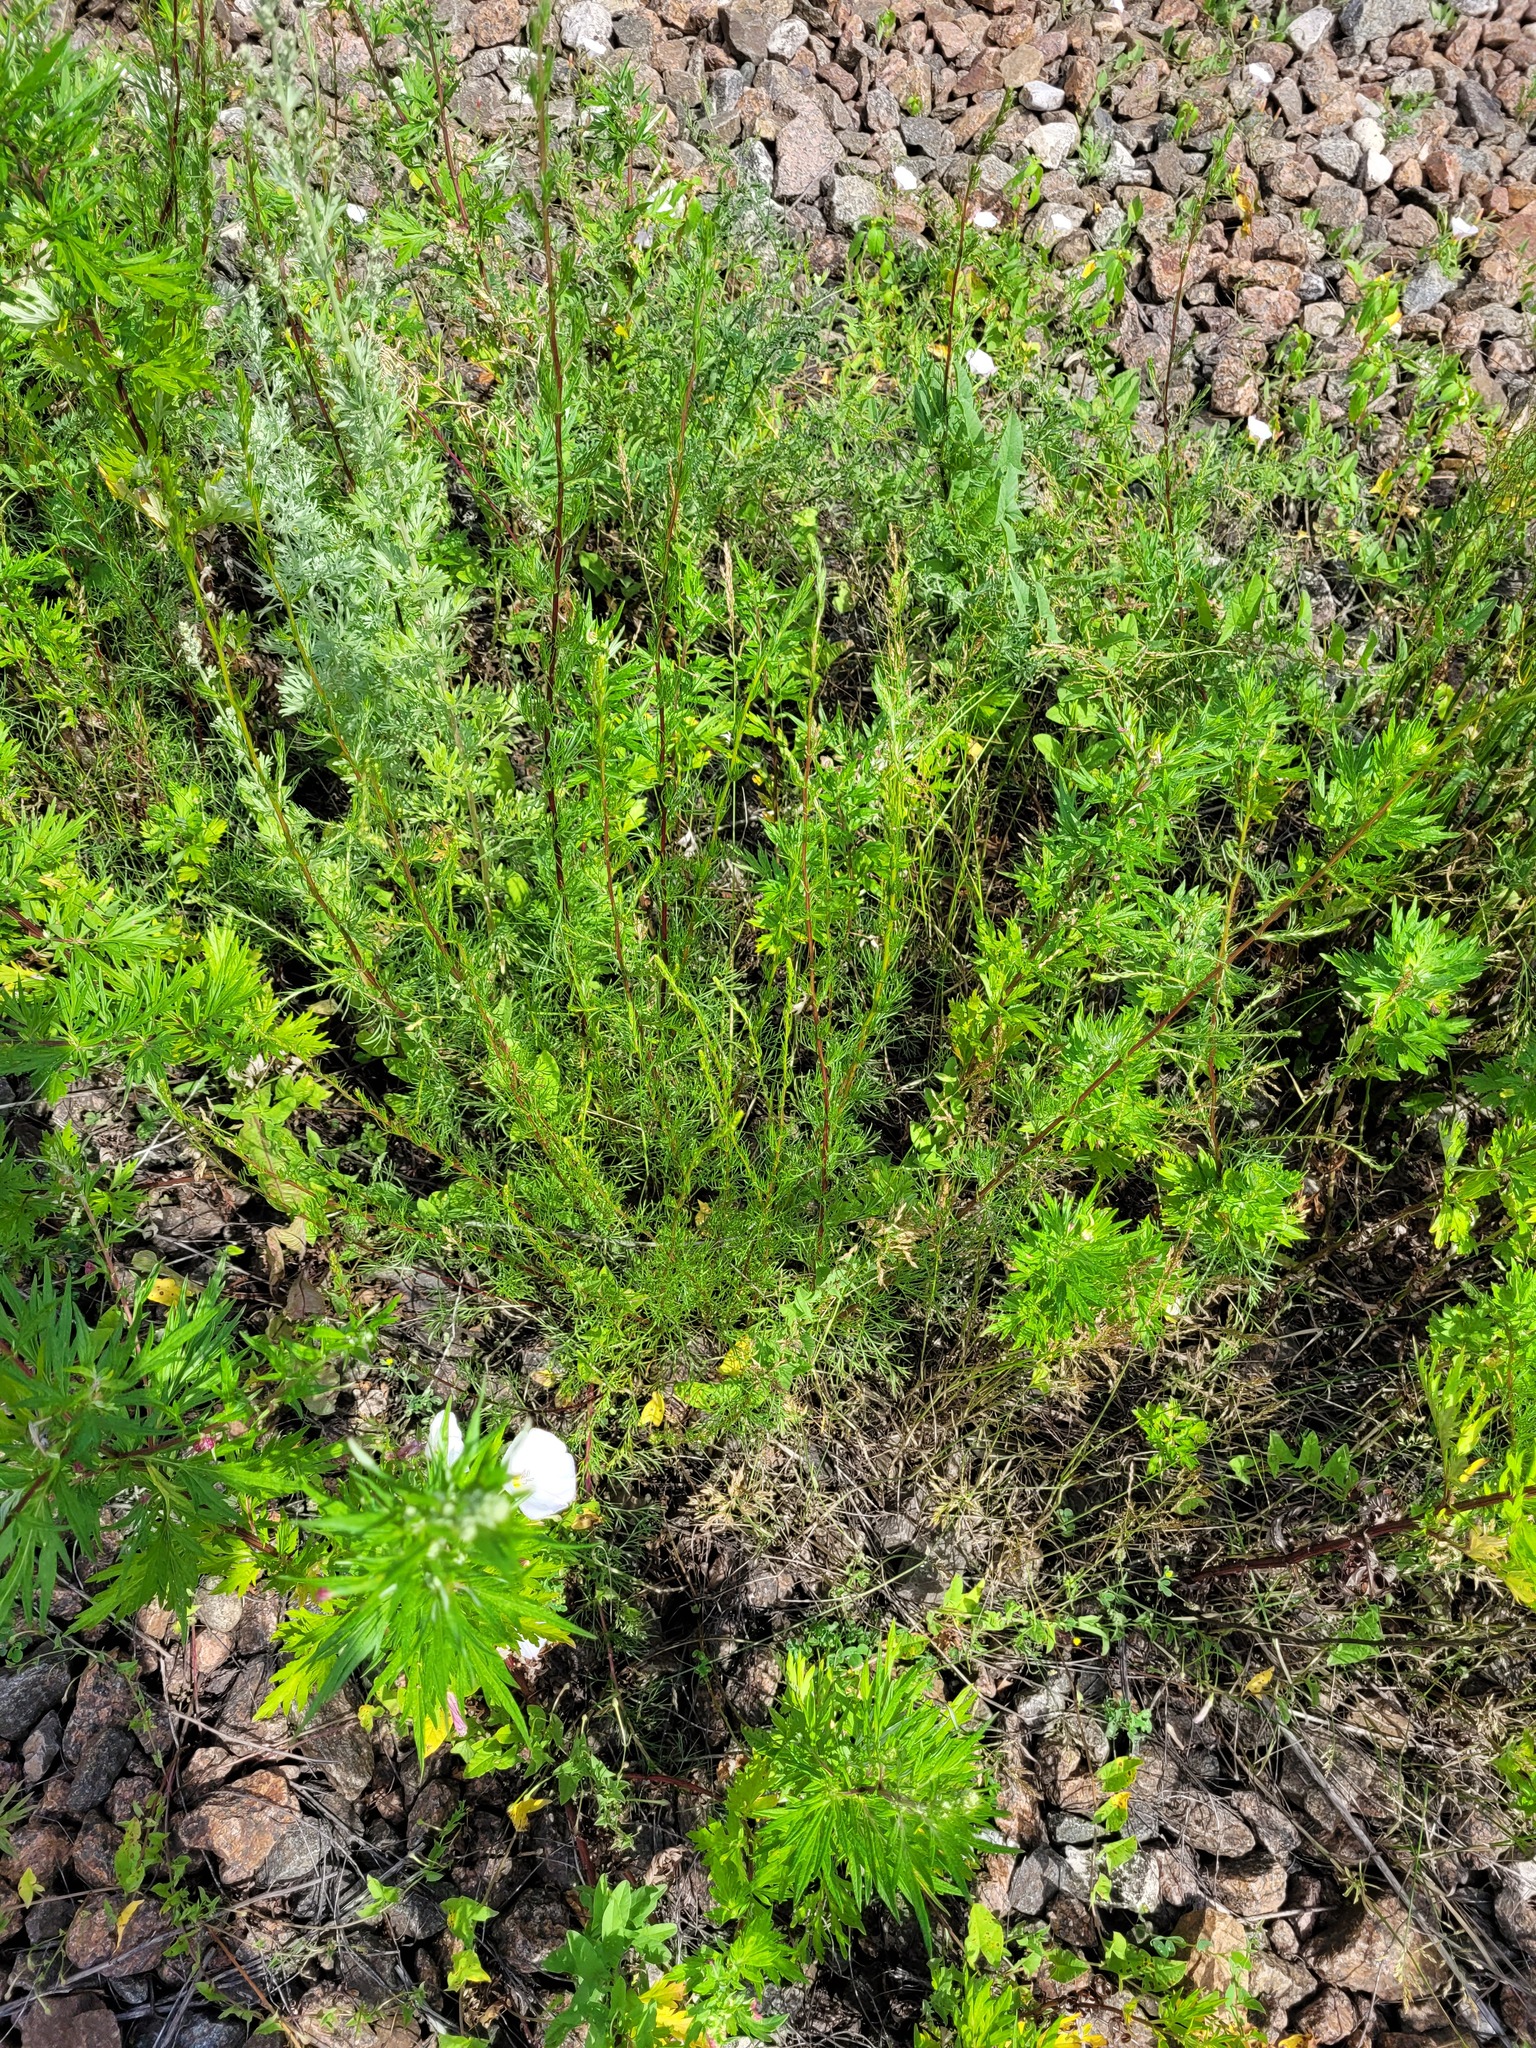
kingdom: Plantae
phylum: Tracheophyta
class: Magnoliopsida
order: Asterales
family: Asteraceae
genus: Artemisia
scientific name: Artemisia campestris
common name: Field wormwood
